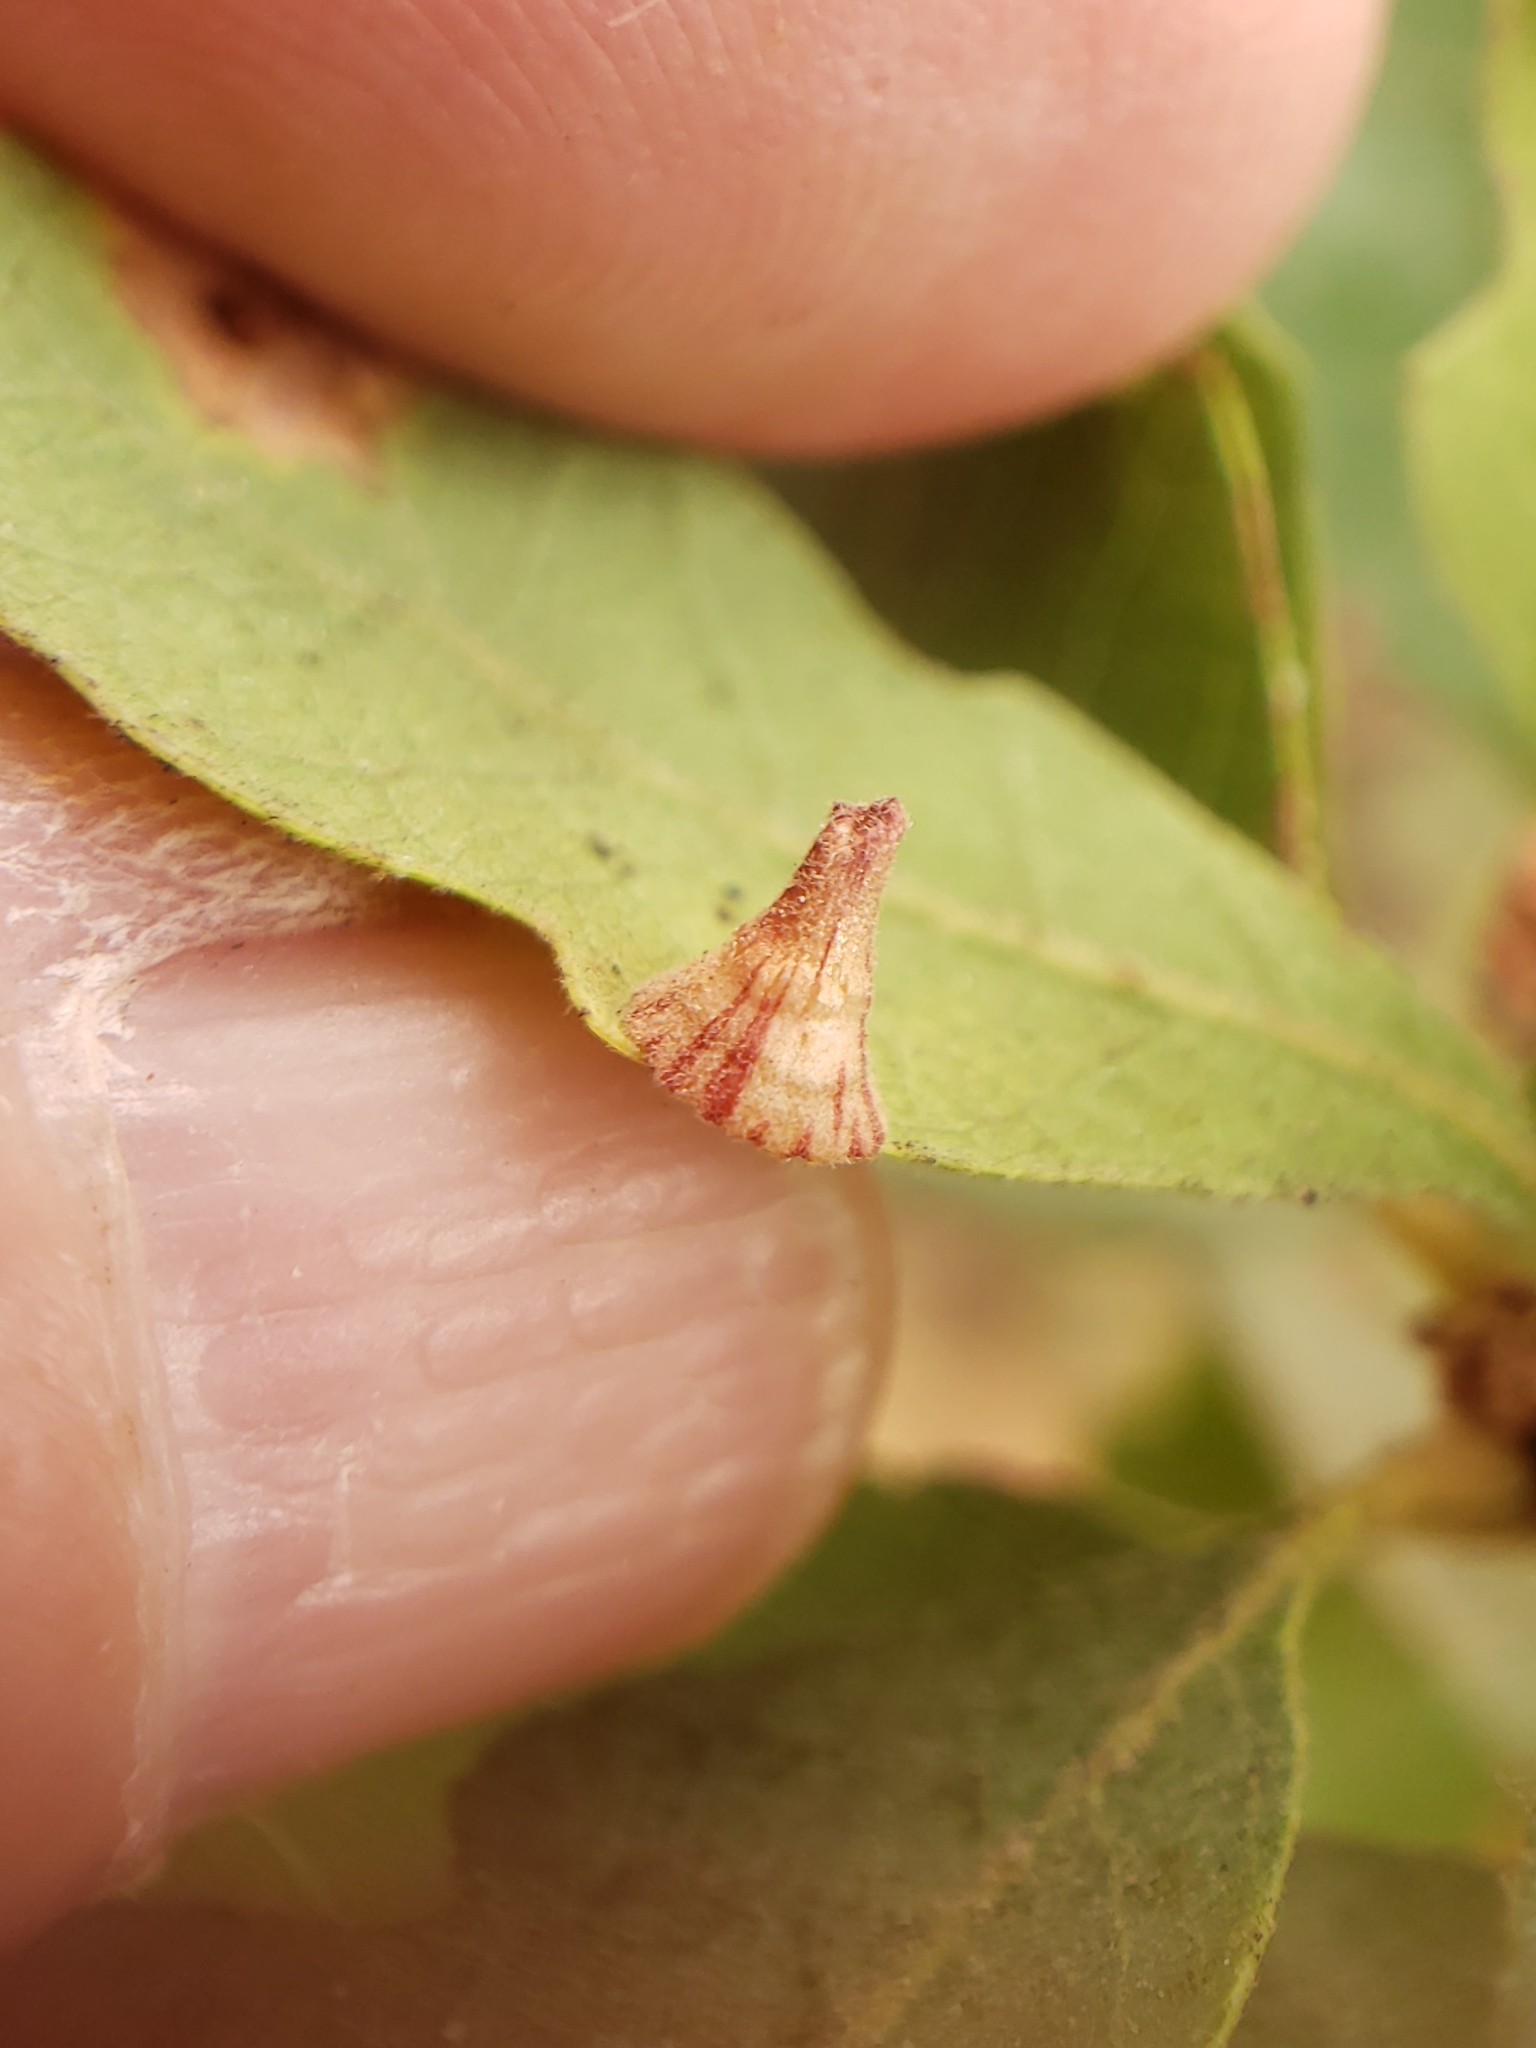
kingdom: Animalia
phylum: Arthropoda
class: Insecta
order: Hymenoptera
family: Cynipidae
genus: Andricus
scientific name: Andricus
